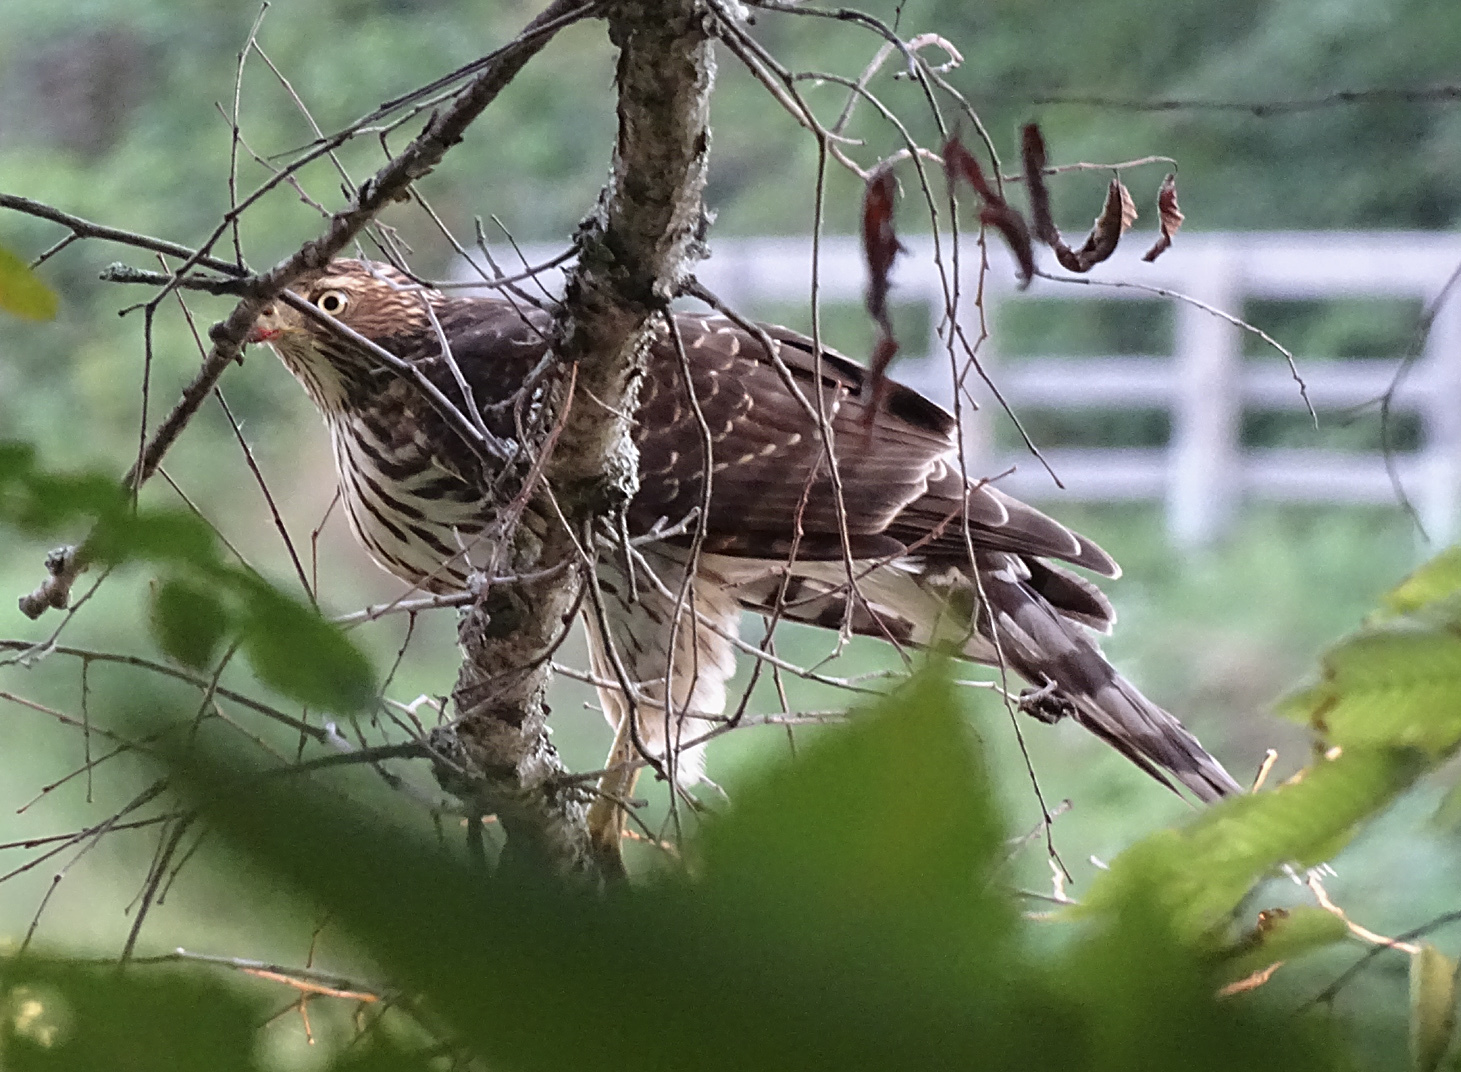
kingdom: Animalia
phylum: Chordata
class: Aves
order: Accipitriformes
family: Accipitridae
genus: Accipiter
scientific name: Accipiter cooperii
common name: Cooper's hawk
